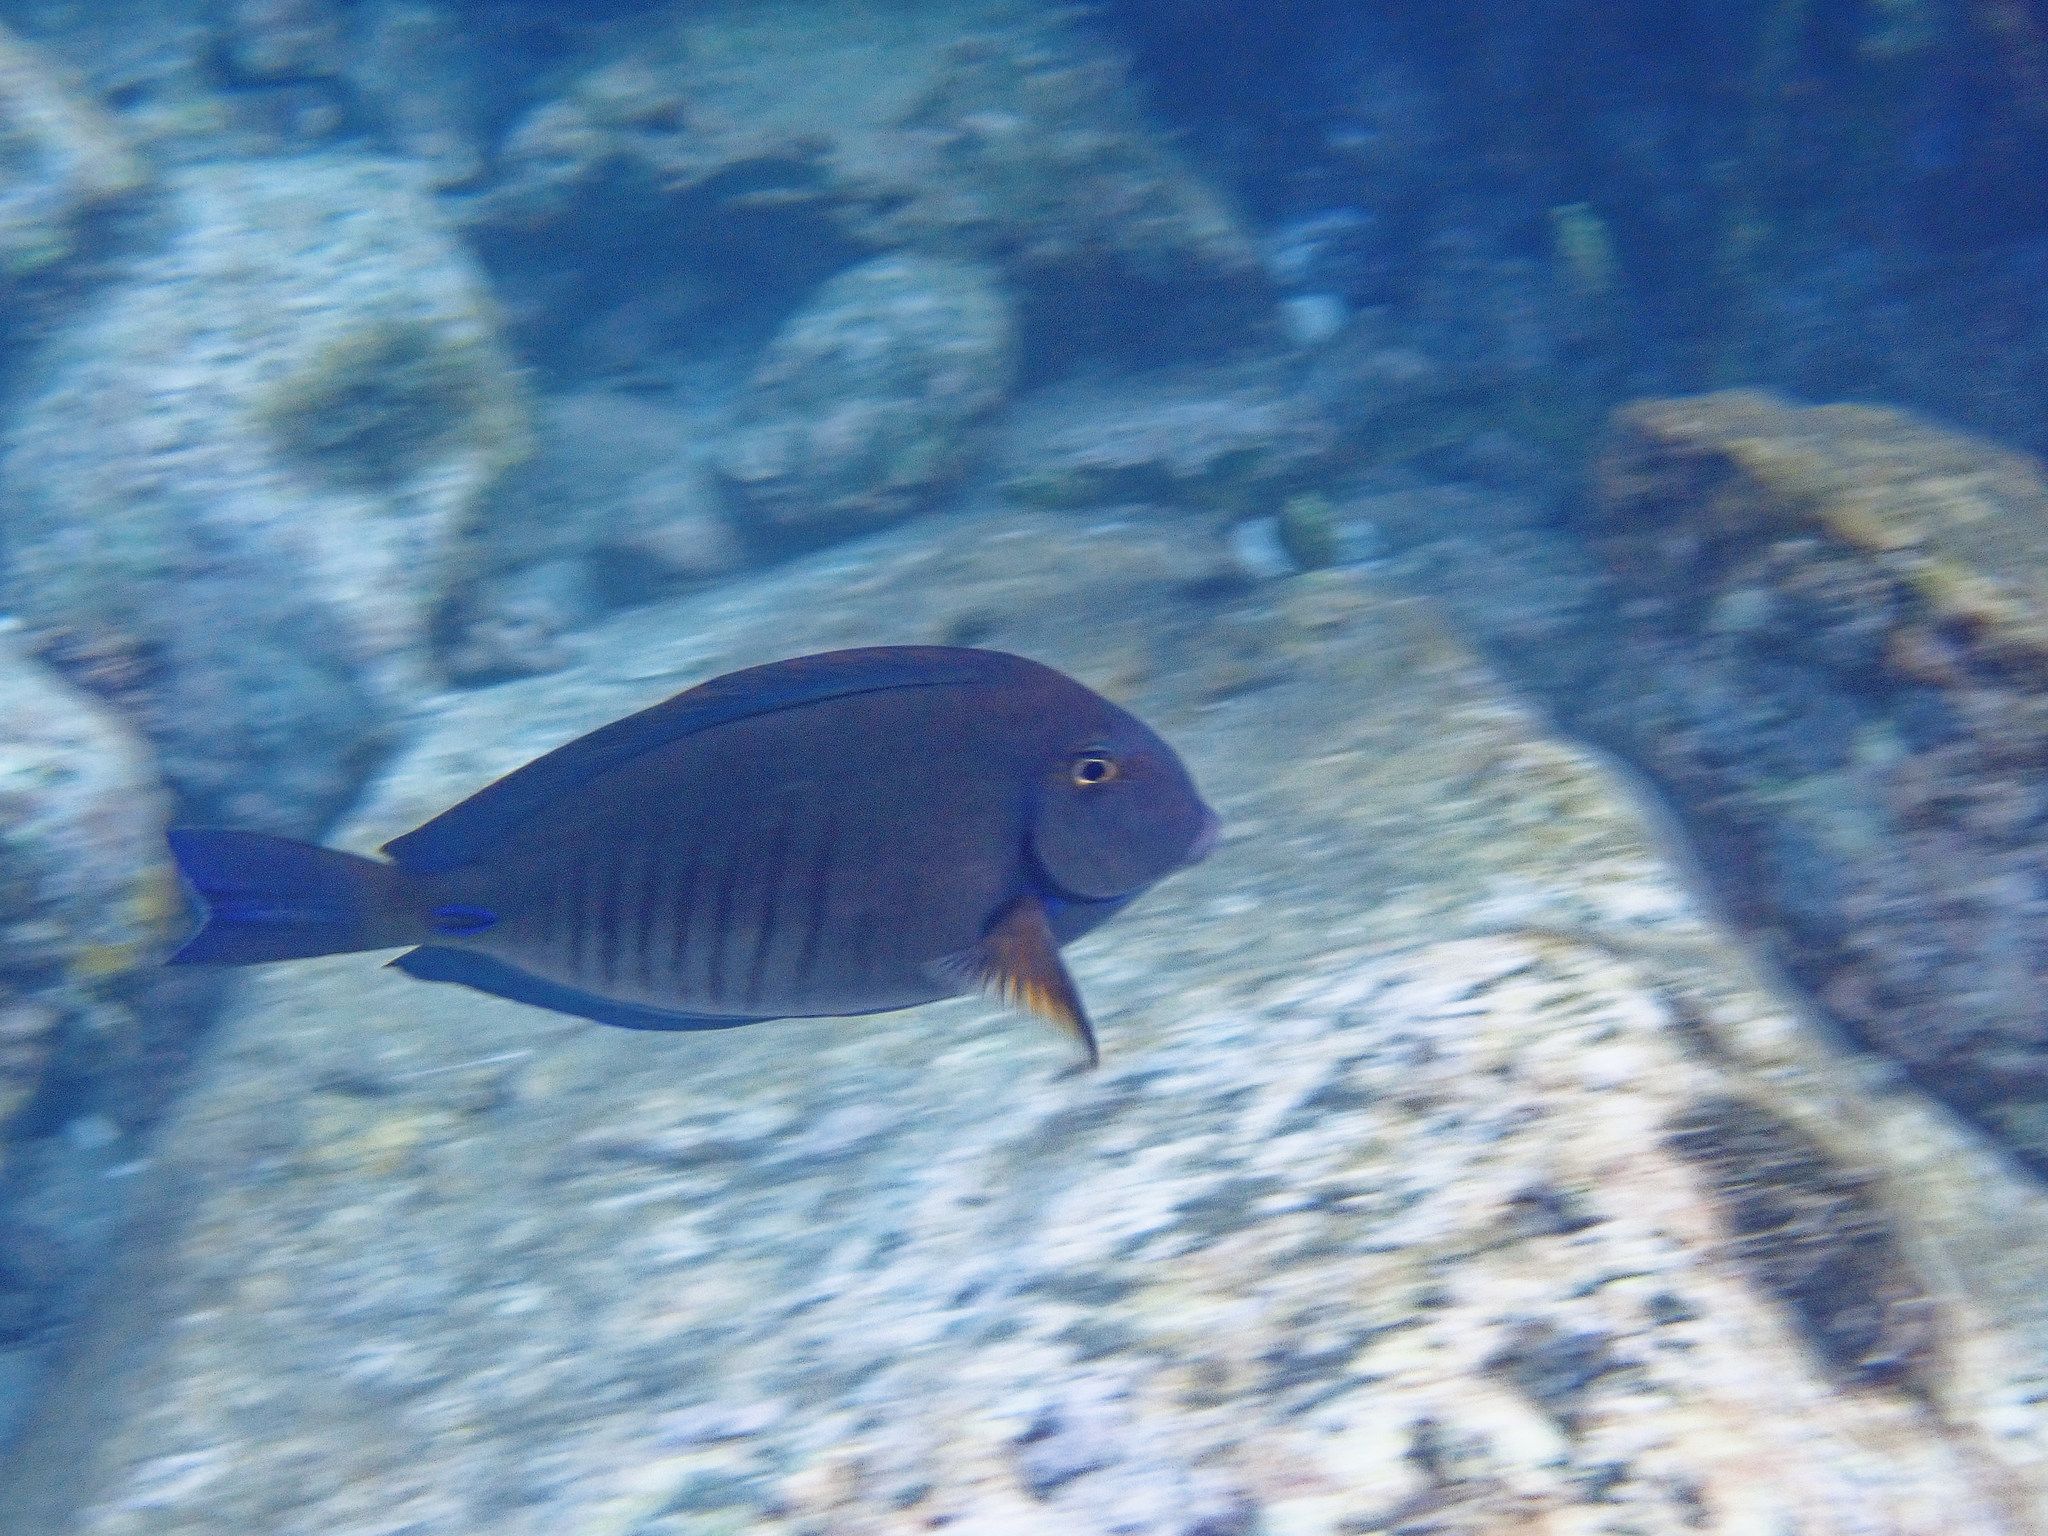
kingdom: Animalia
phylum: Chordata
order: Perciformes
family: Acanthuridae
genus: Acanthurus
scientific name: Acanthurus chirurgus
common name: Doctorfish
